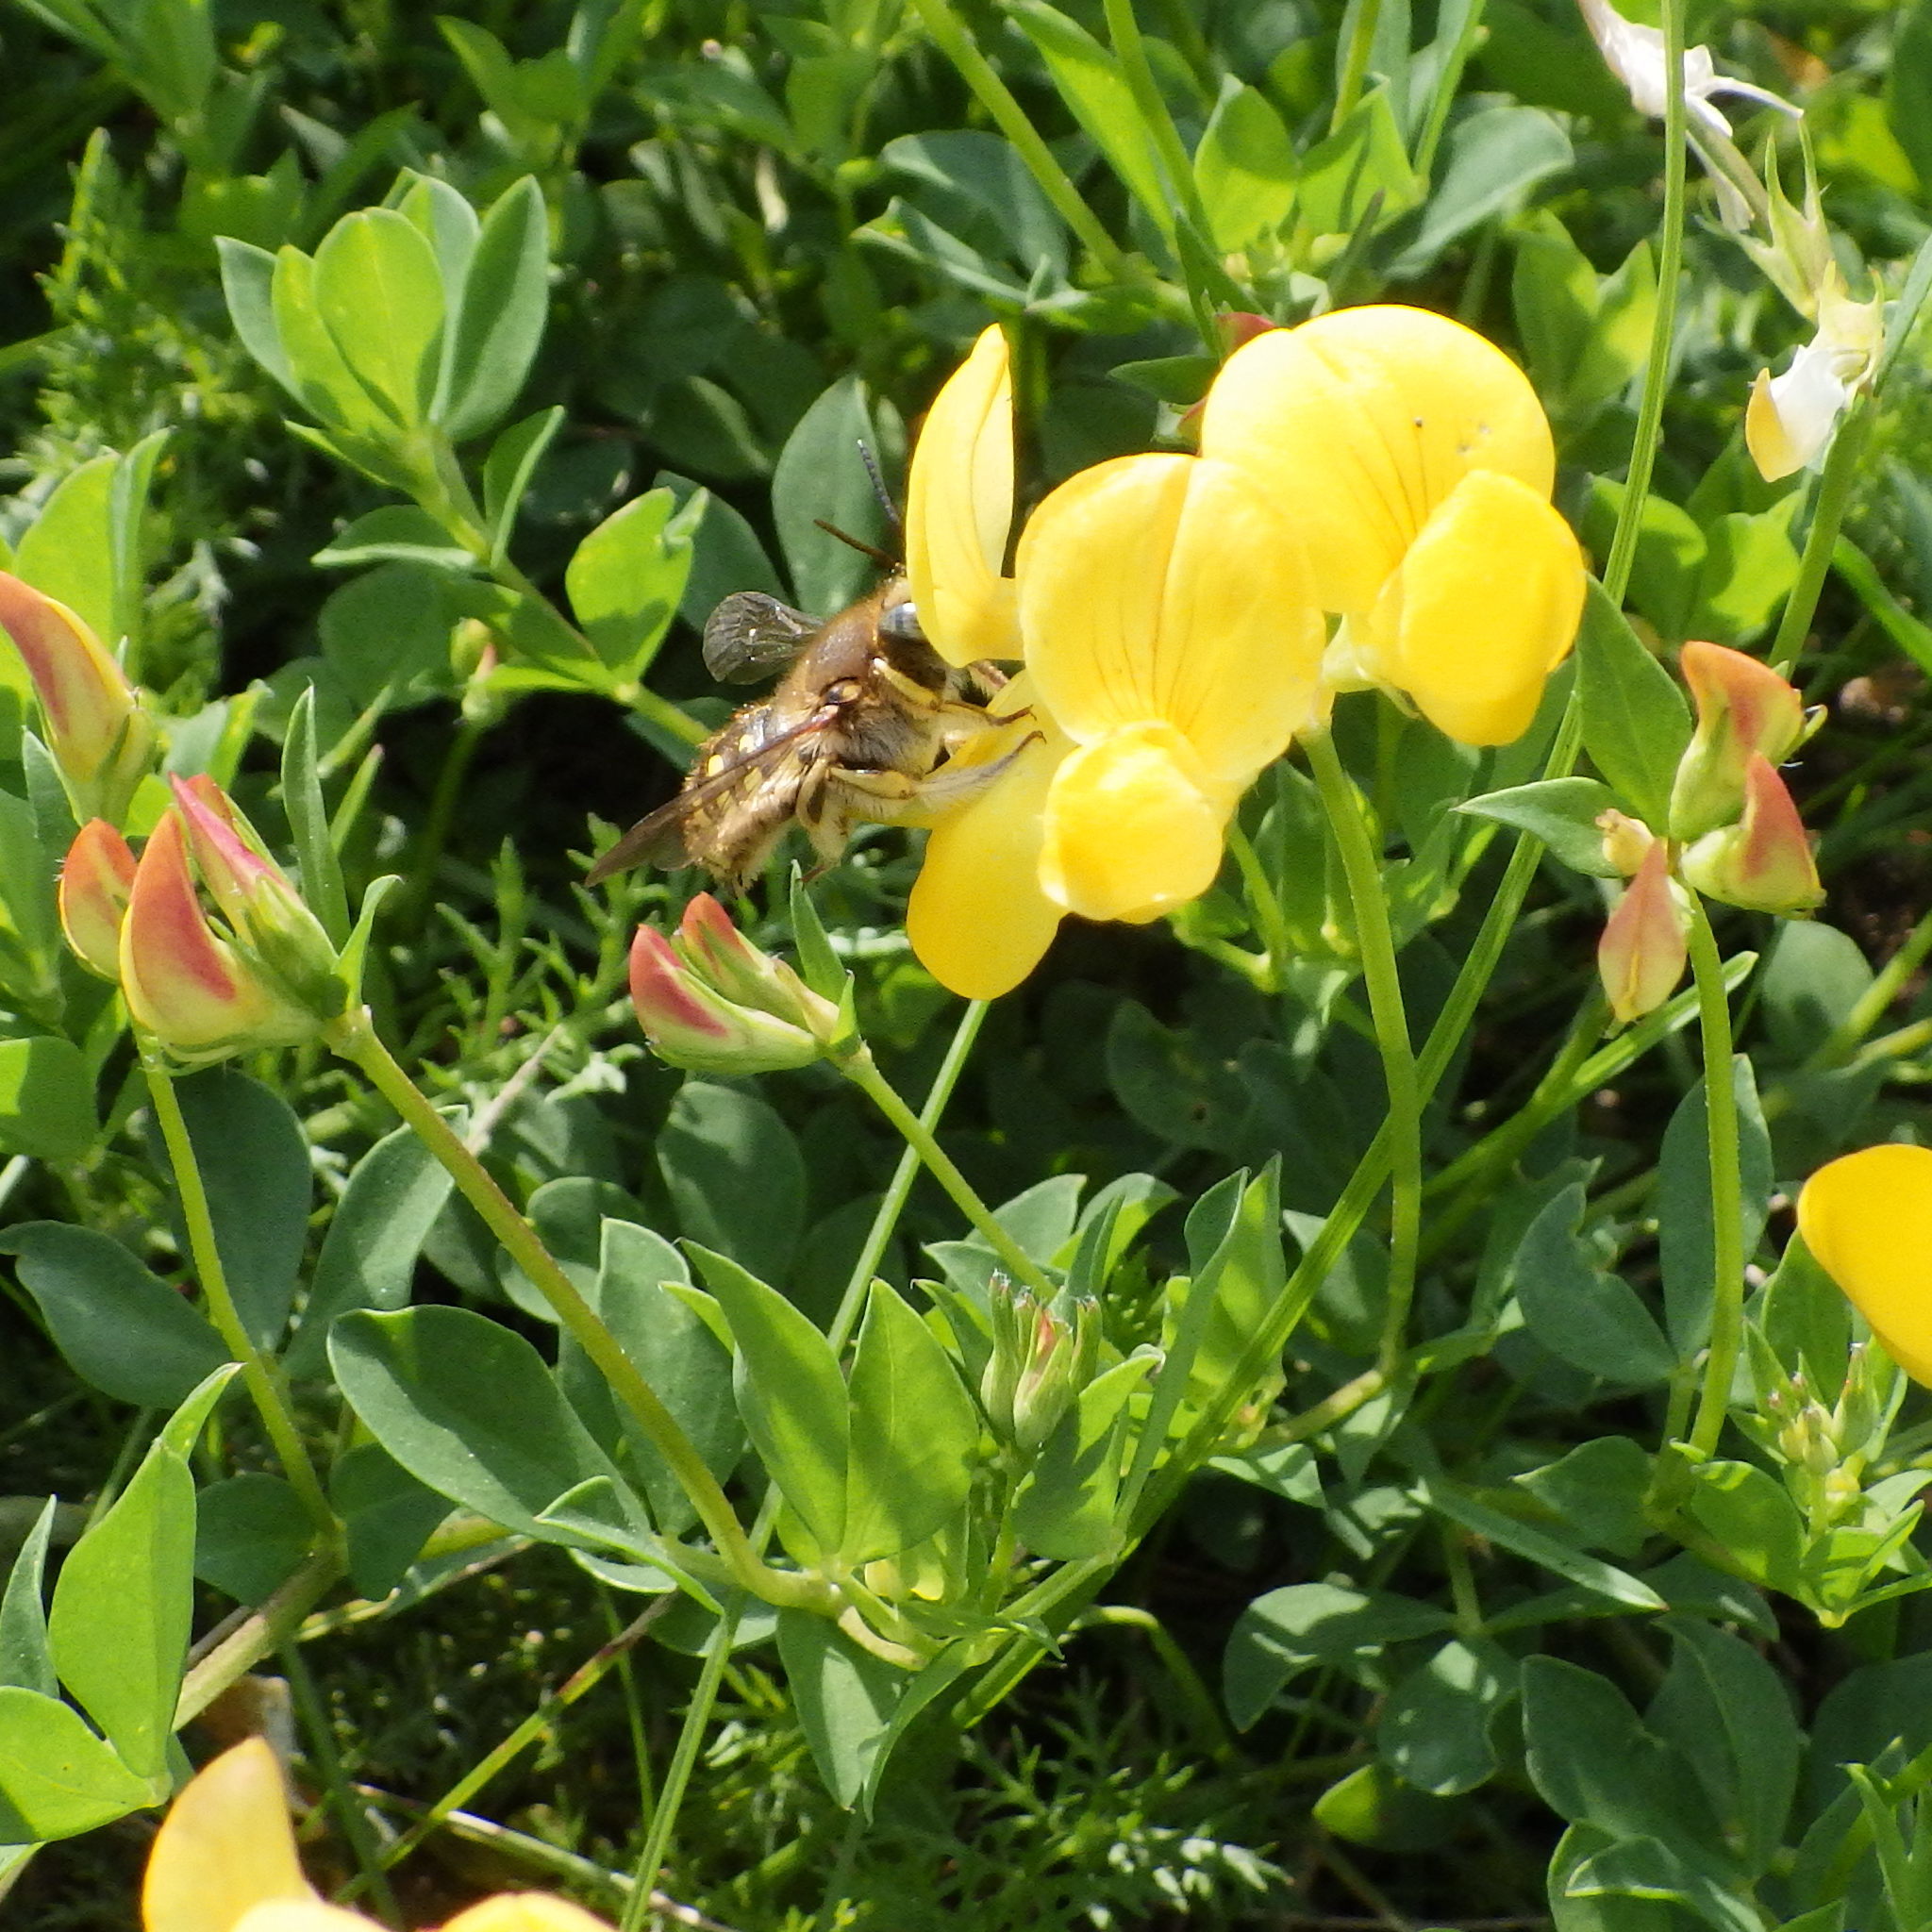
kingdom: Animalia
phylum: Arthropoda
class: Insecta
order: Hymenoptera
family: Megachilidae
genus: Anthidium
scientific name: Anthidium manicatum
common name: Wool carder bee
